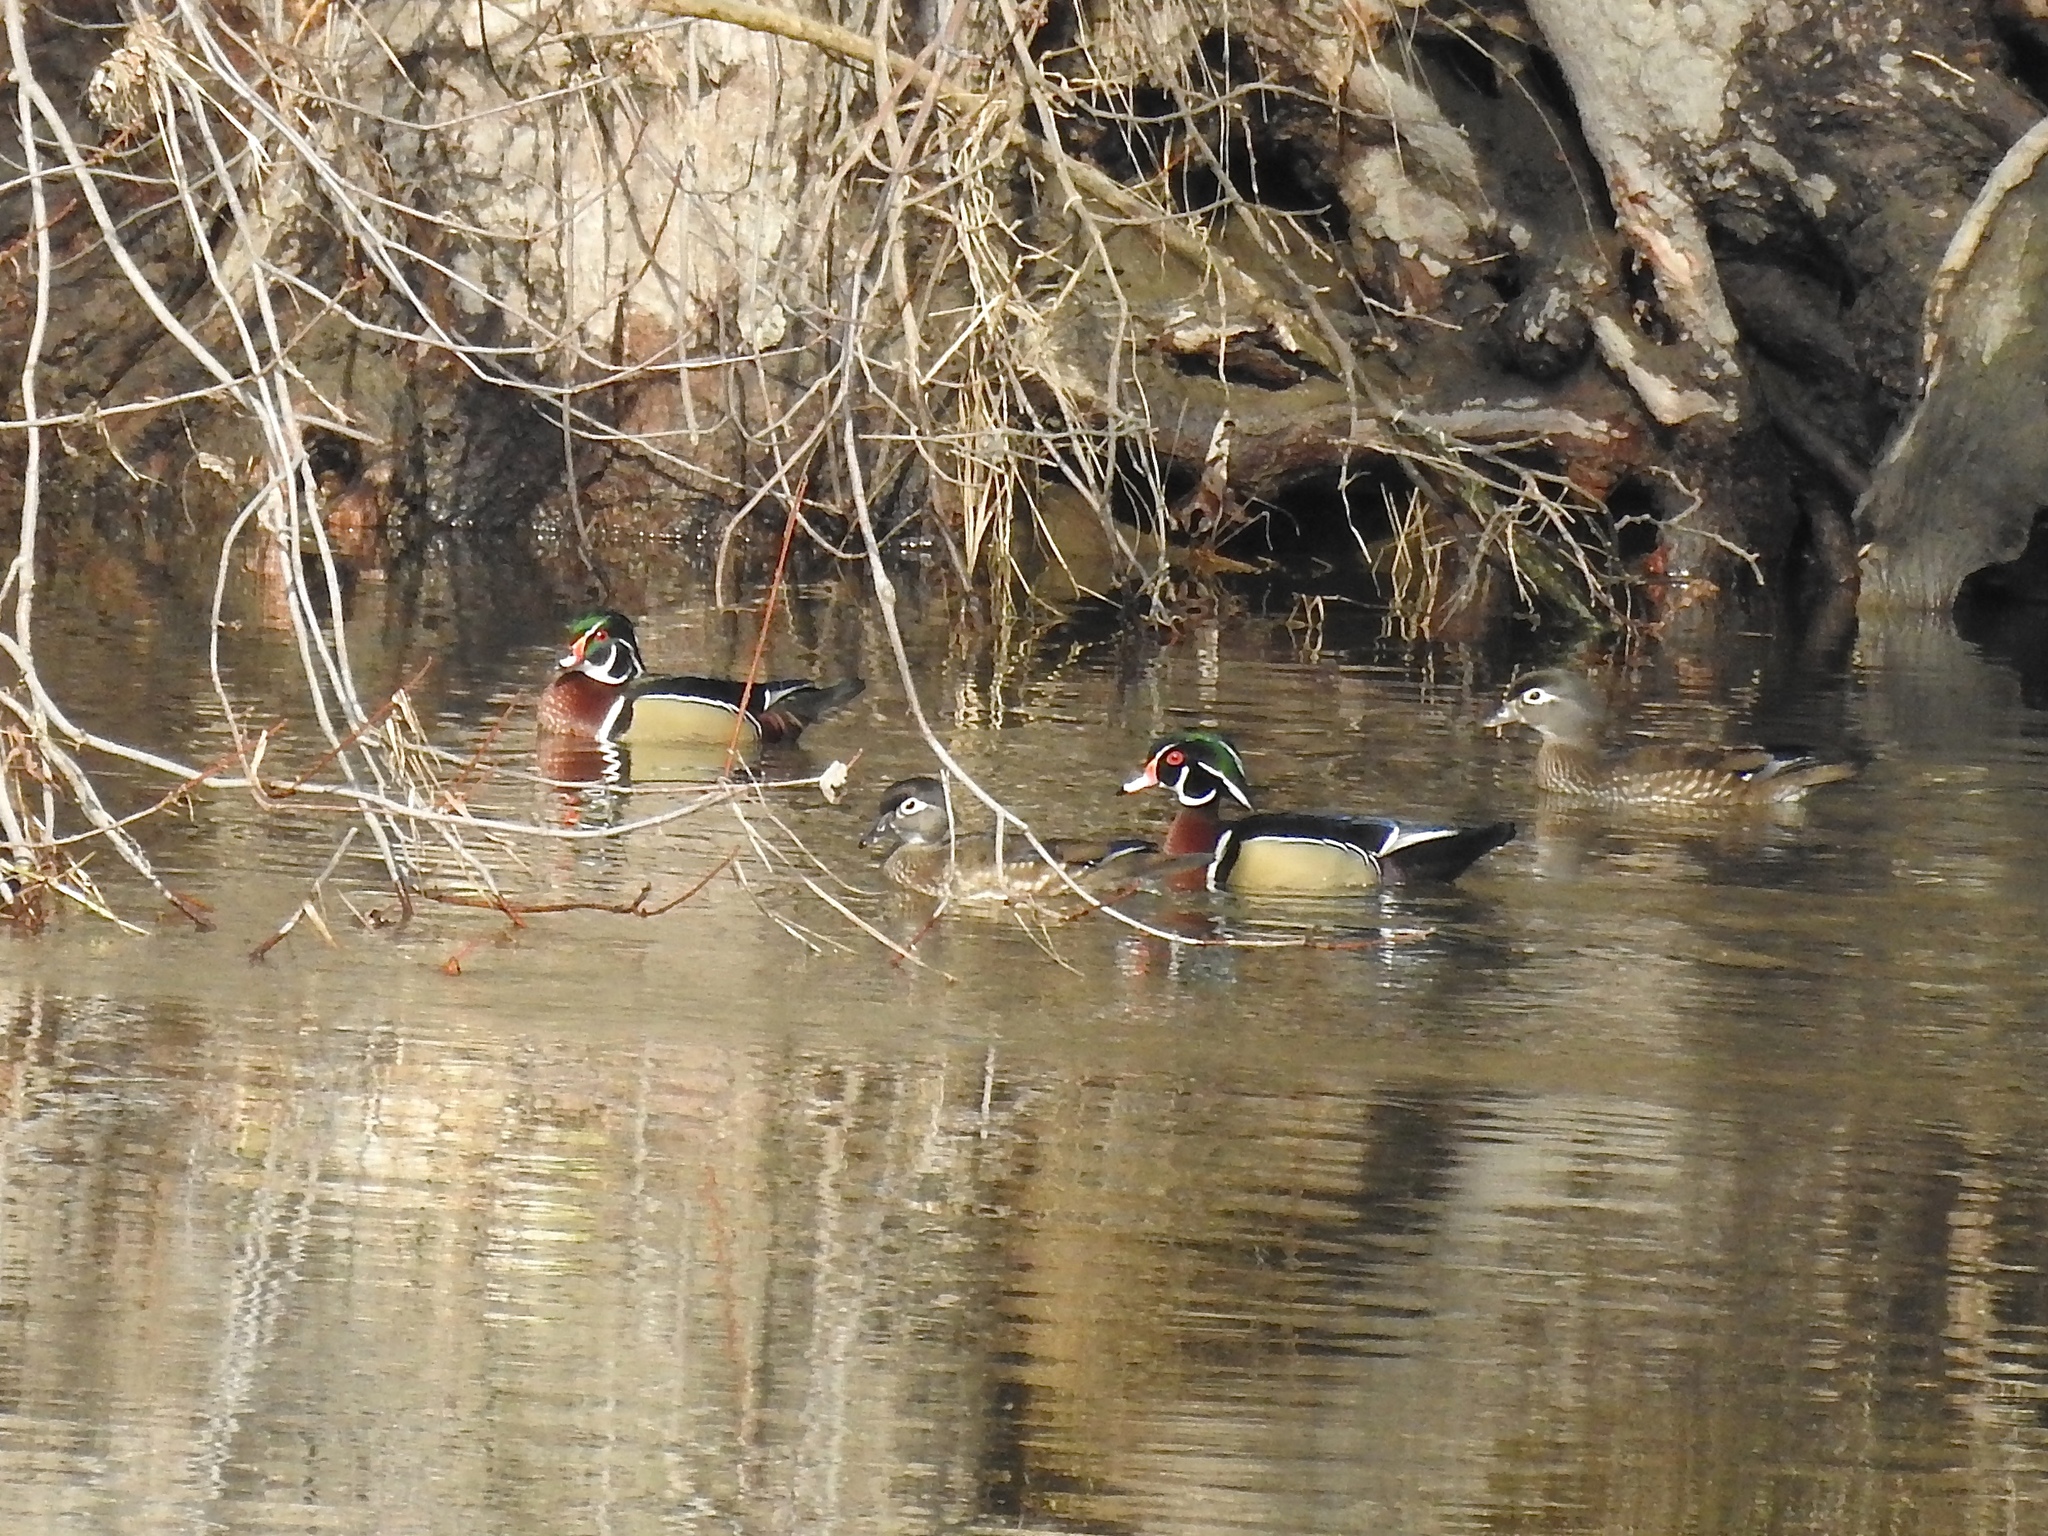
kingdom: Animalia
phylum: Chordata
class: Aves
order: Anseriformes
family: Anatidae
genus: Aix
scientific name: Aix sponsa
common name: Wood duck
